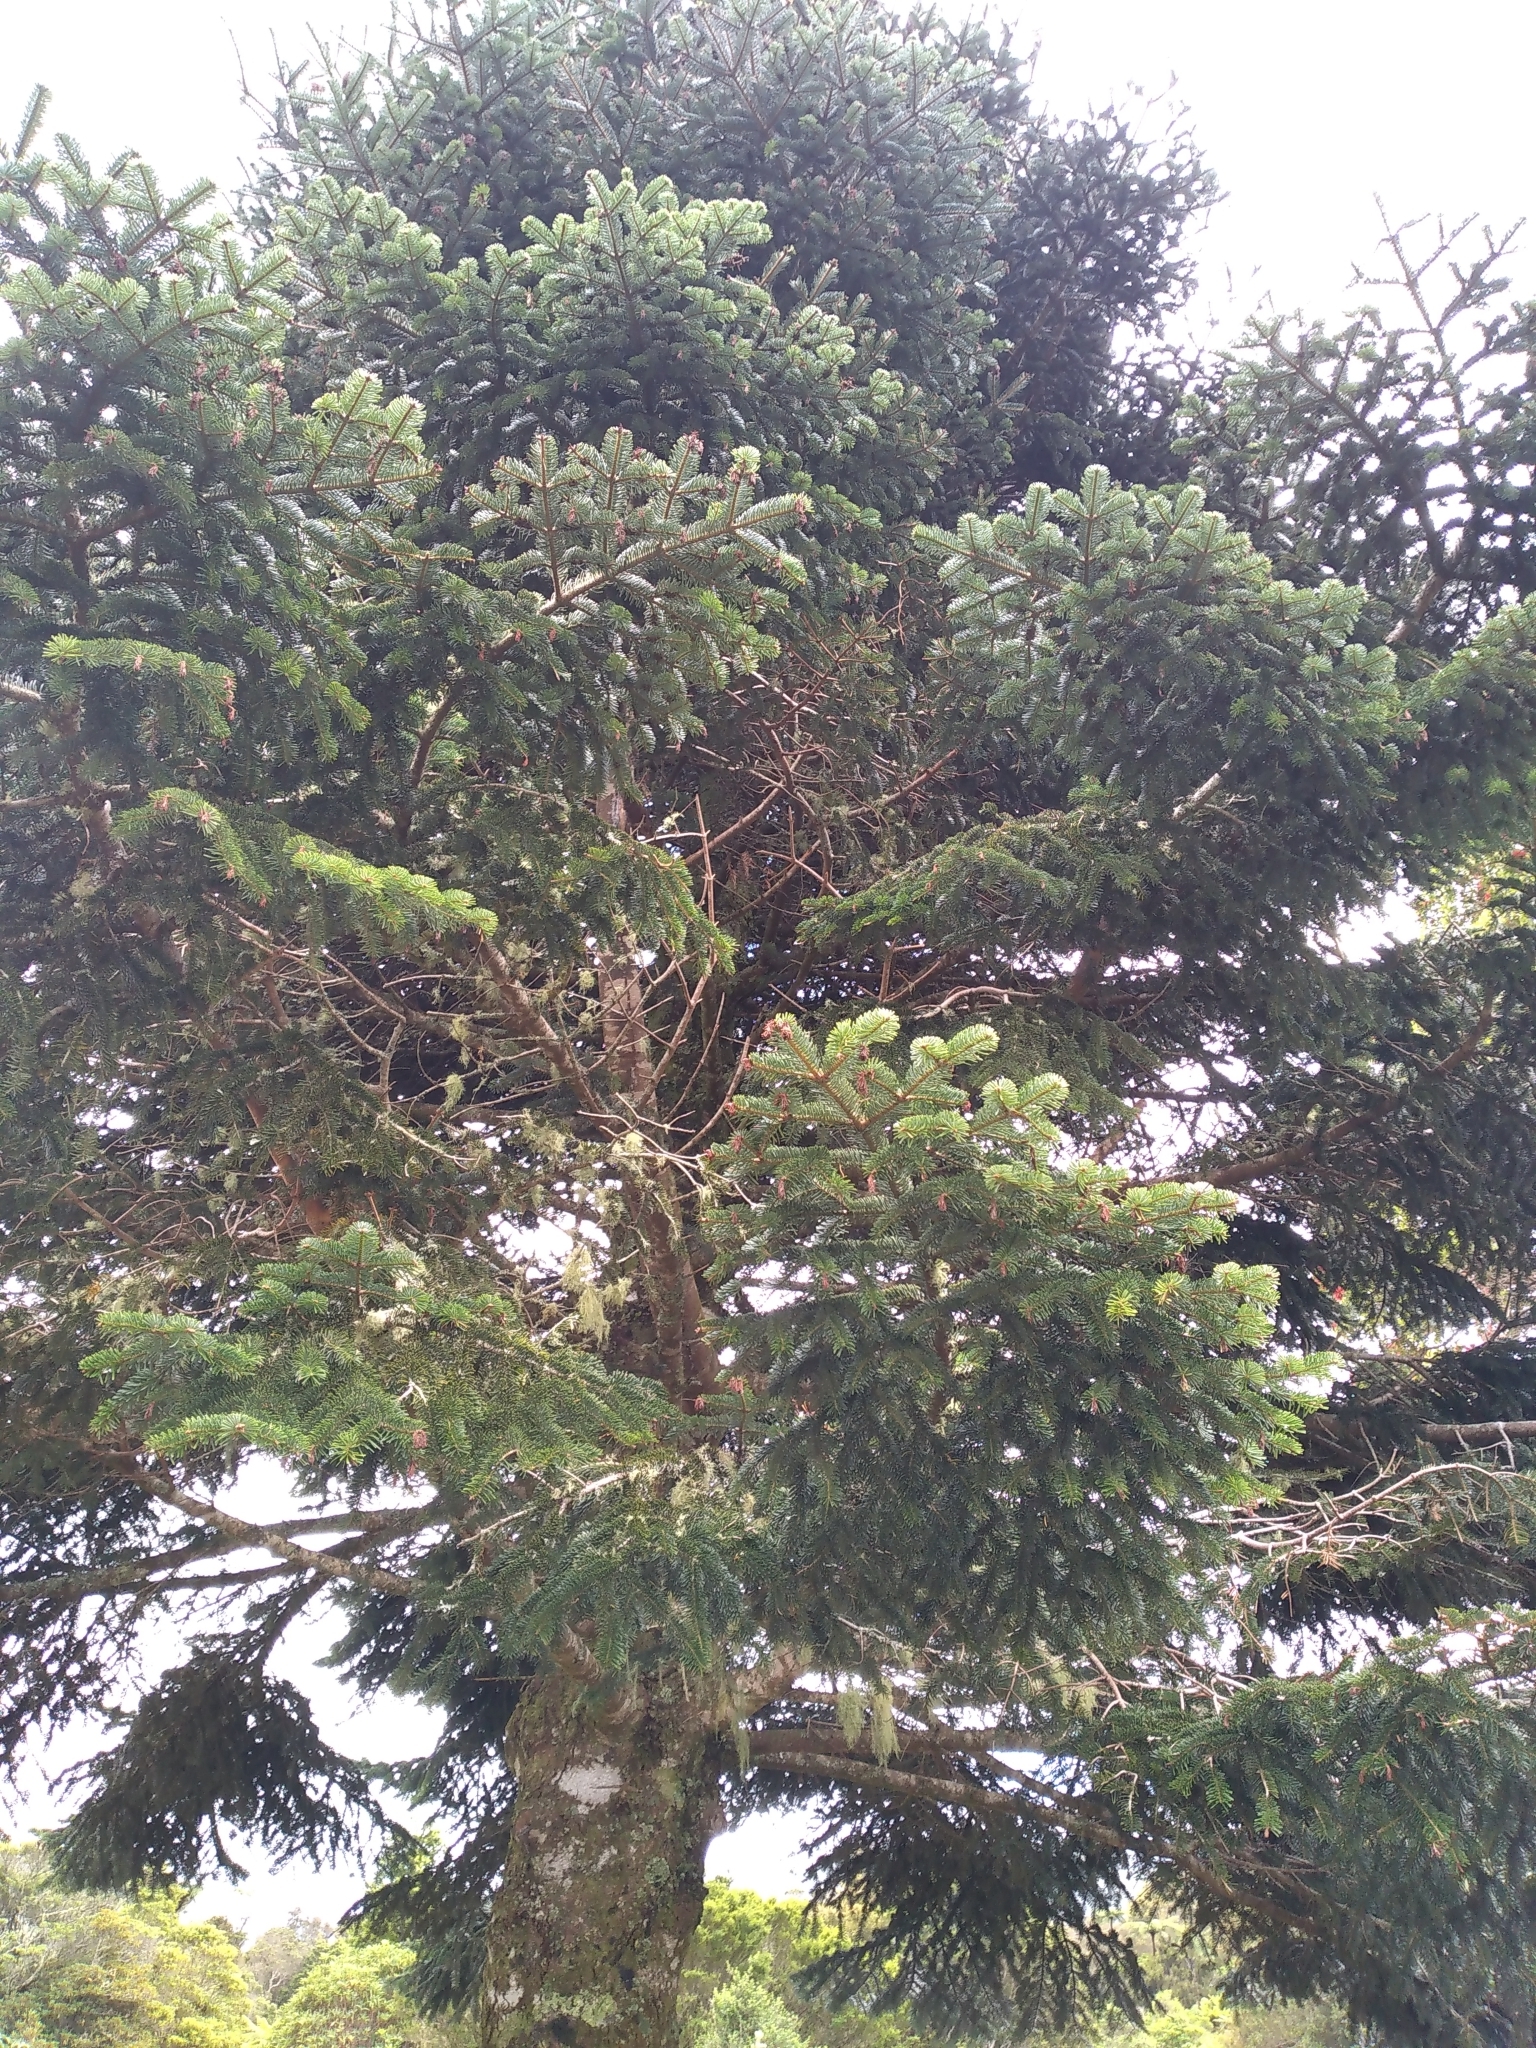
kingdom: Plantae
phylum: Tracheophyta
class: Liliopsida
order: Asparagales
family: Orchidaceae
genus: Drymoanthus
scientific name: Drymoanthus adversus
